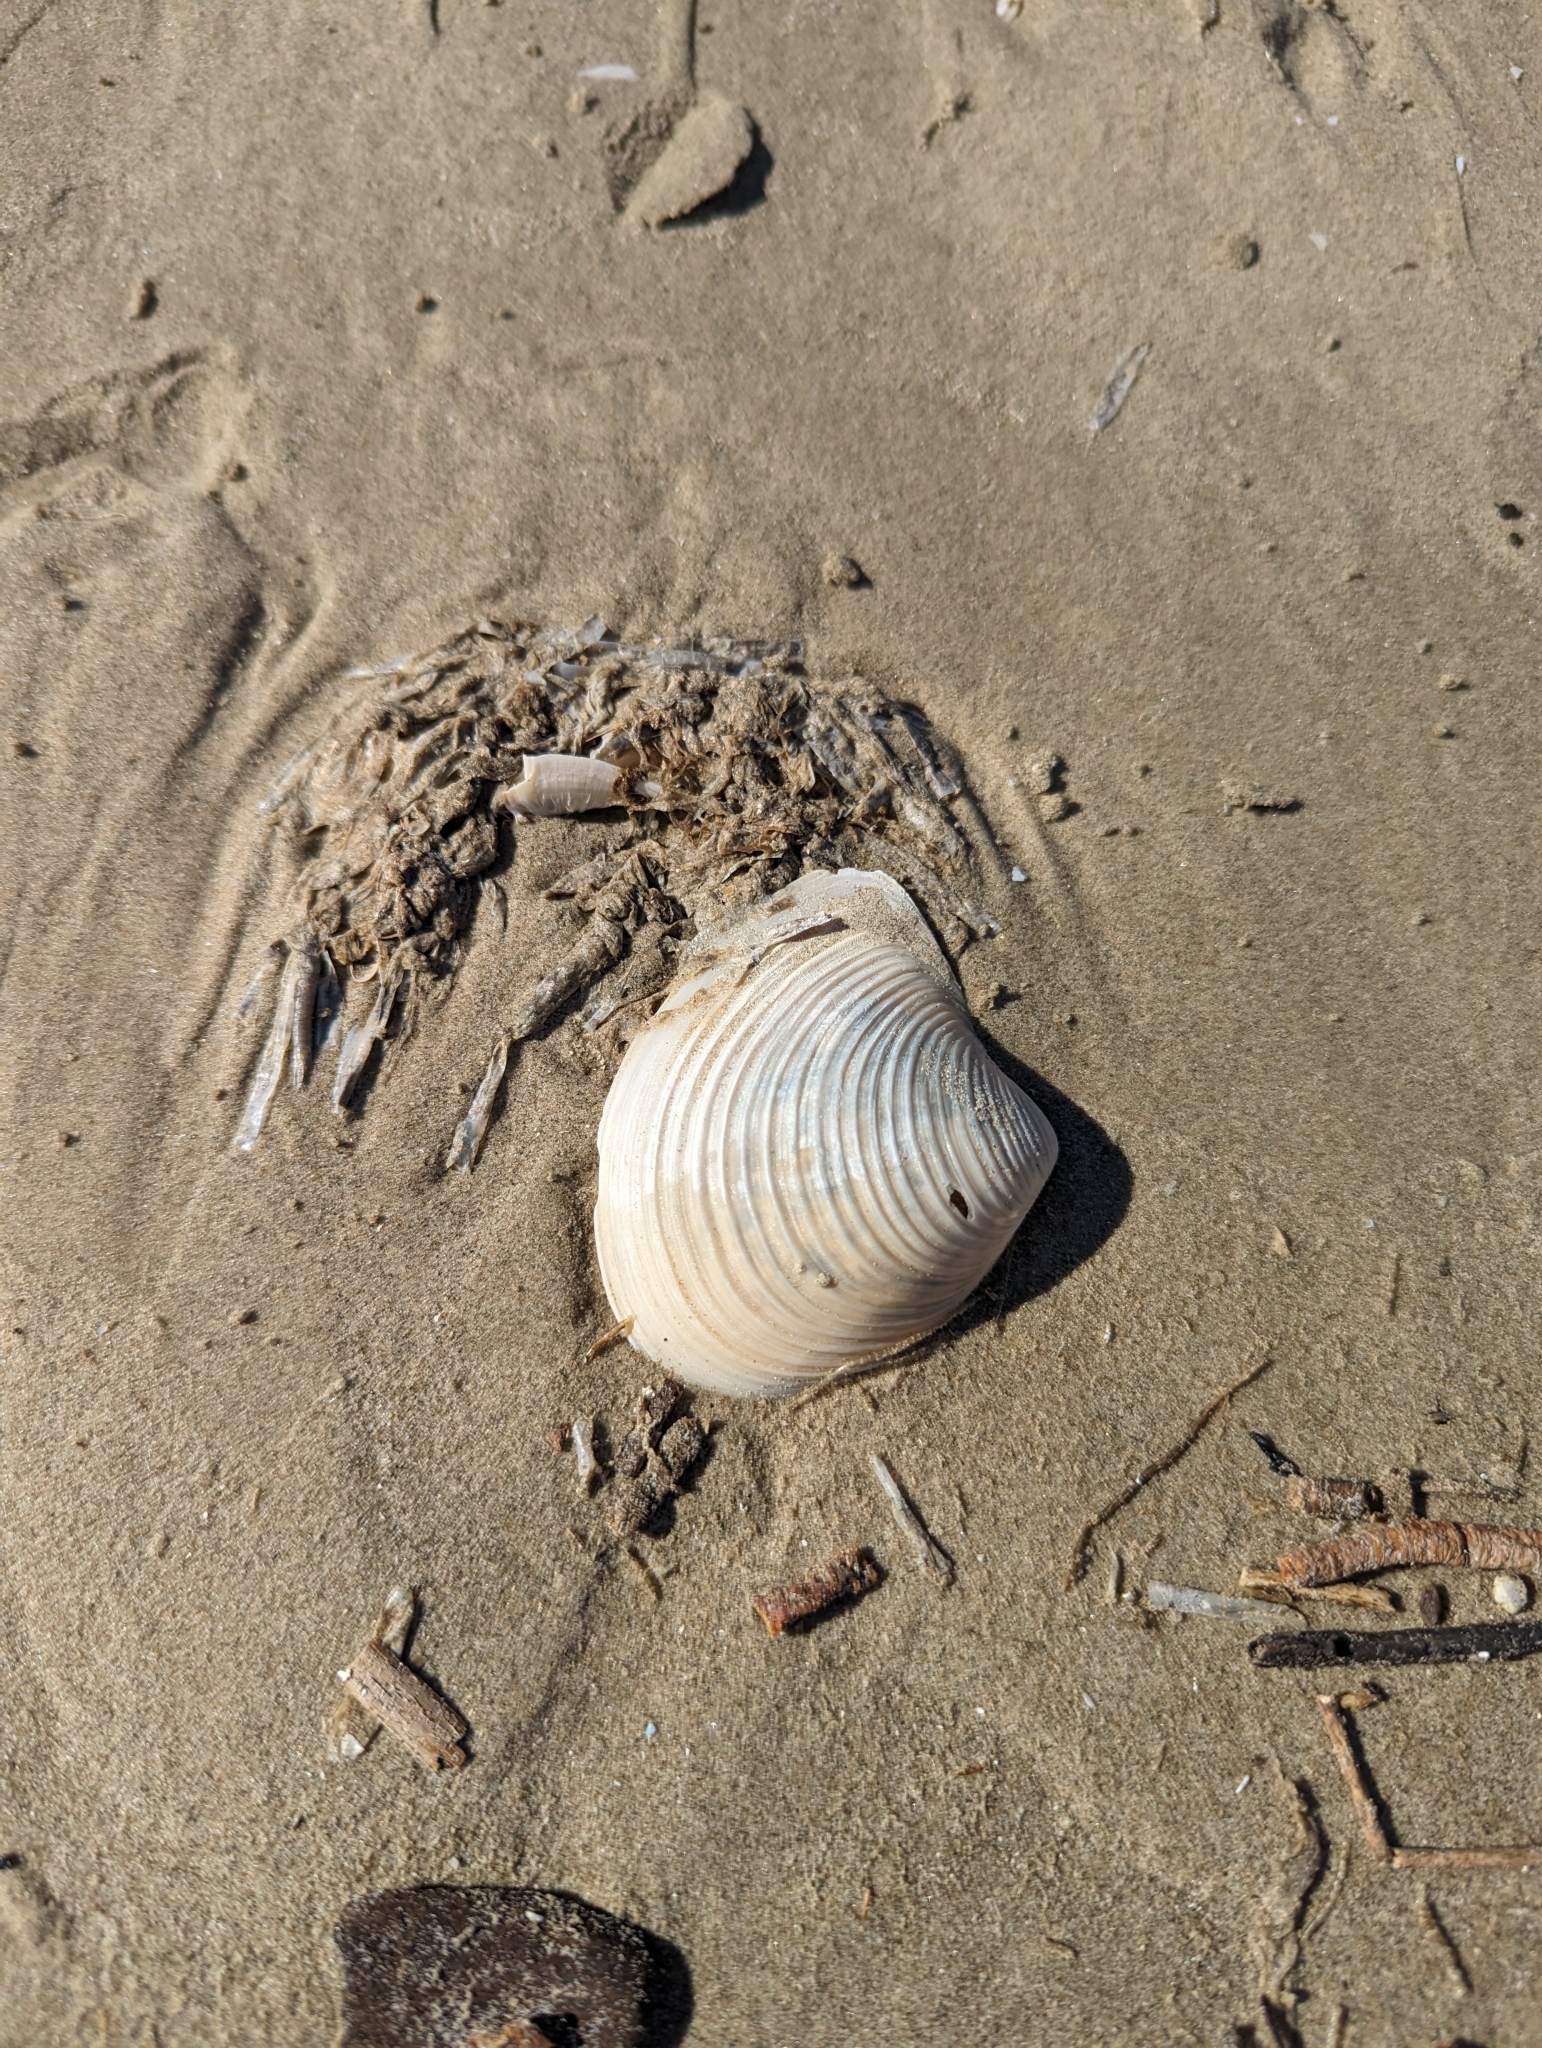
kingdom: Animalia
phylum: Mollusca
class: Bivalvia
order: Venerida
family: Anatinellidae
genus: Raeta
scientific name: Raeta plicatella
